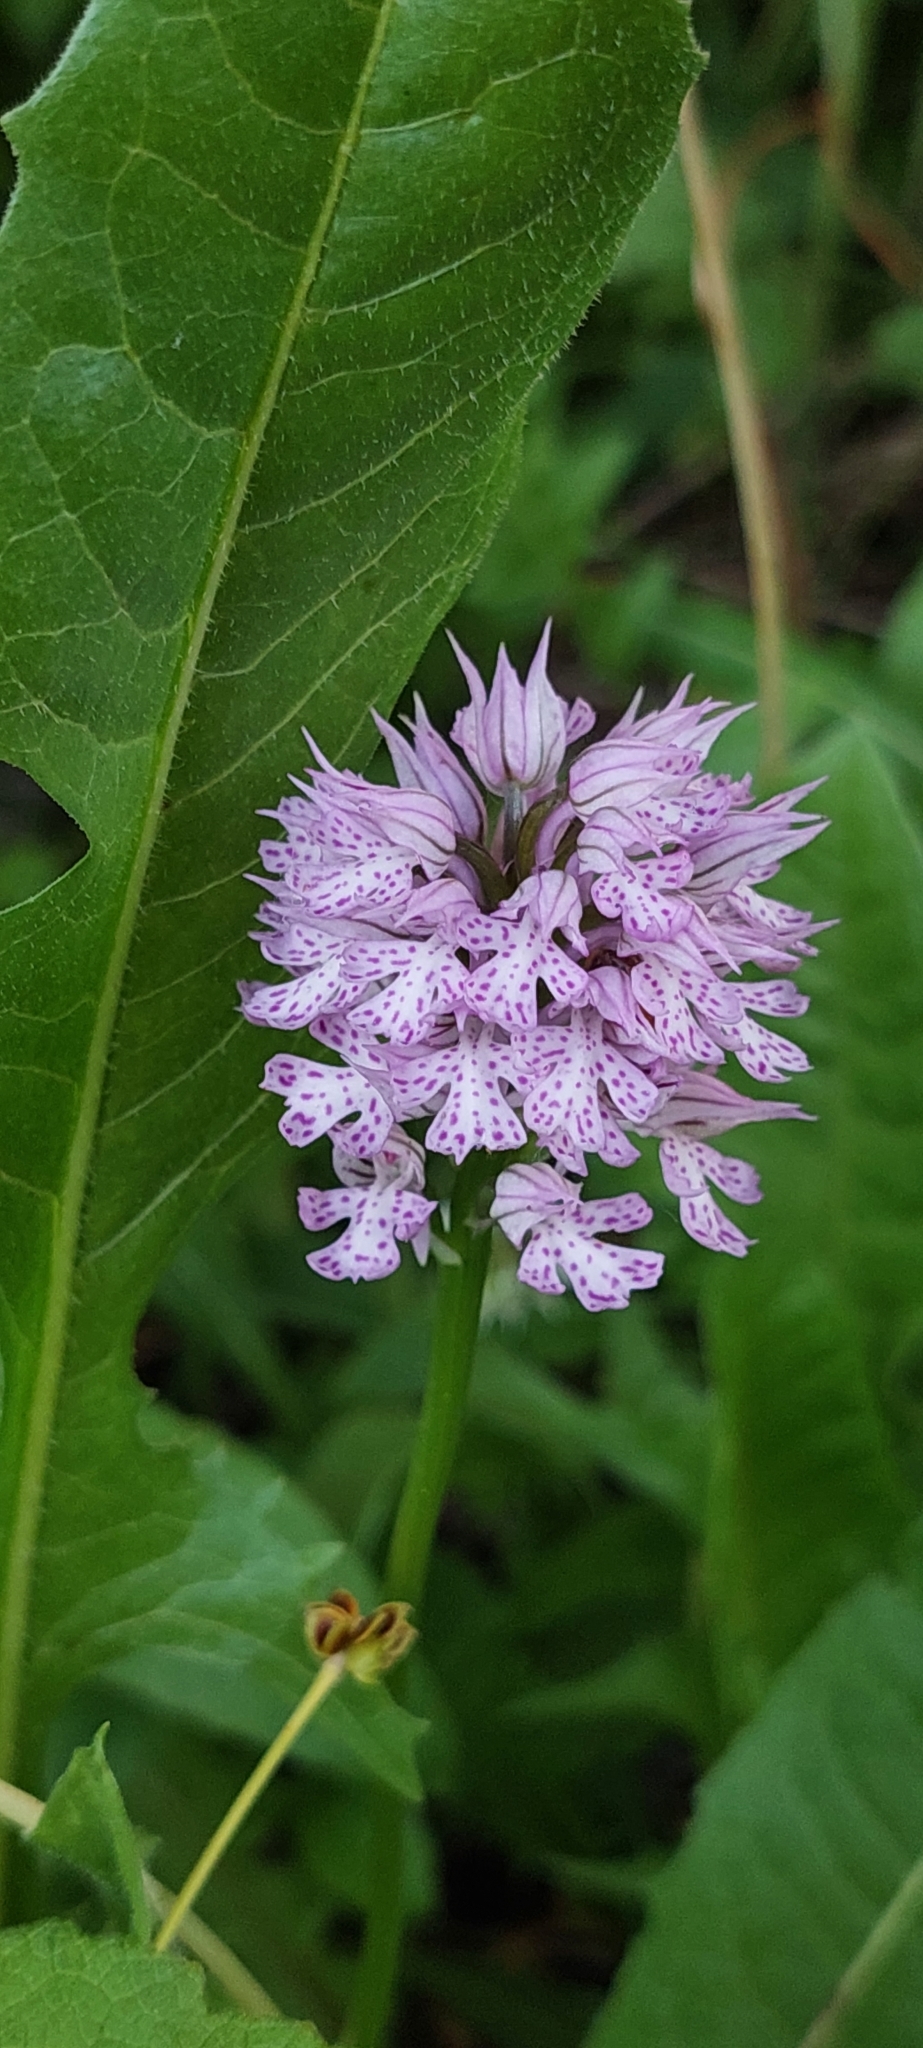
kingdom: Plantae
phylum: Tracheophyta
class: Liliopsida
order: Asparagales
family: Orchidaceae
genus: Neotinea
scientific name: Neotinea tridentata
